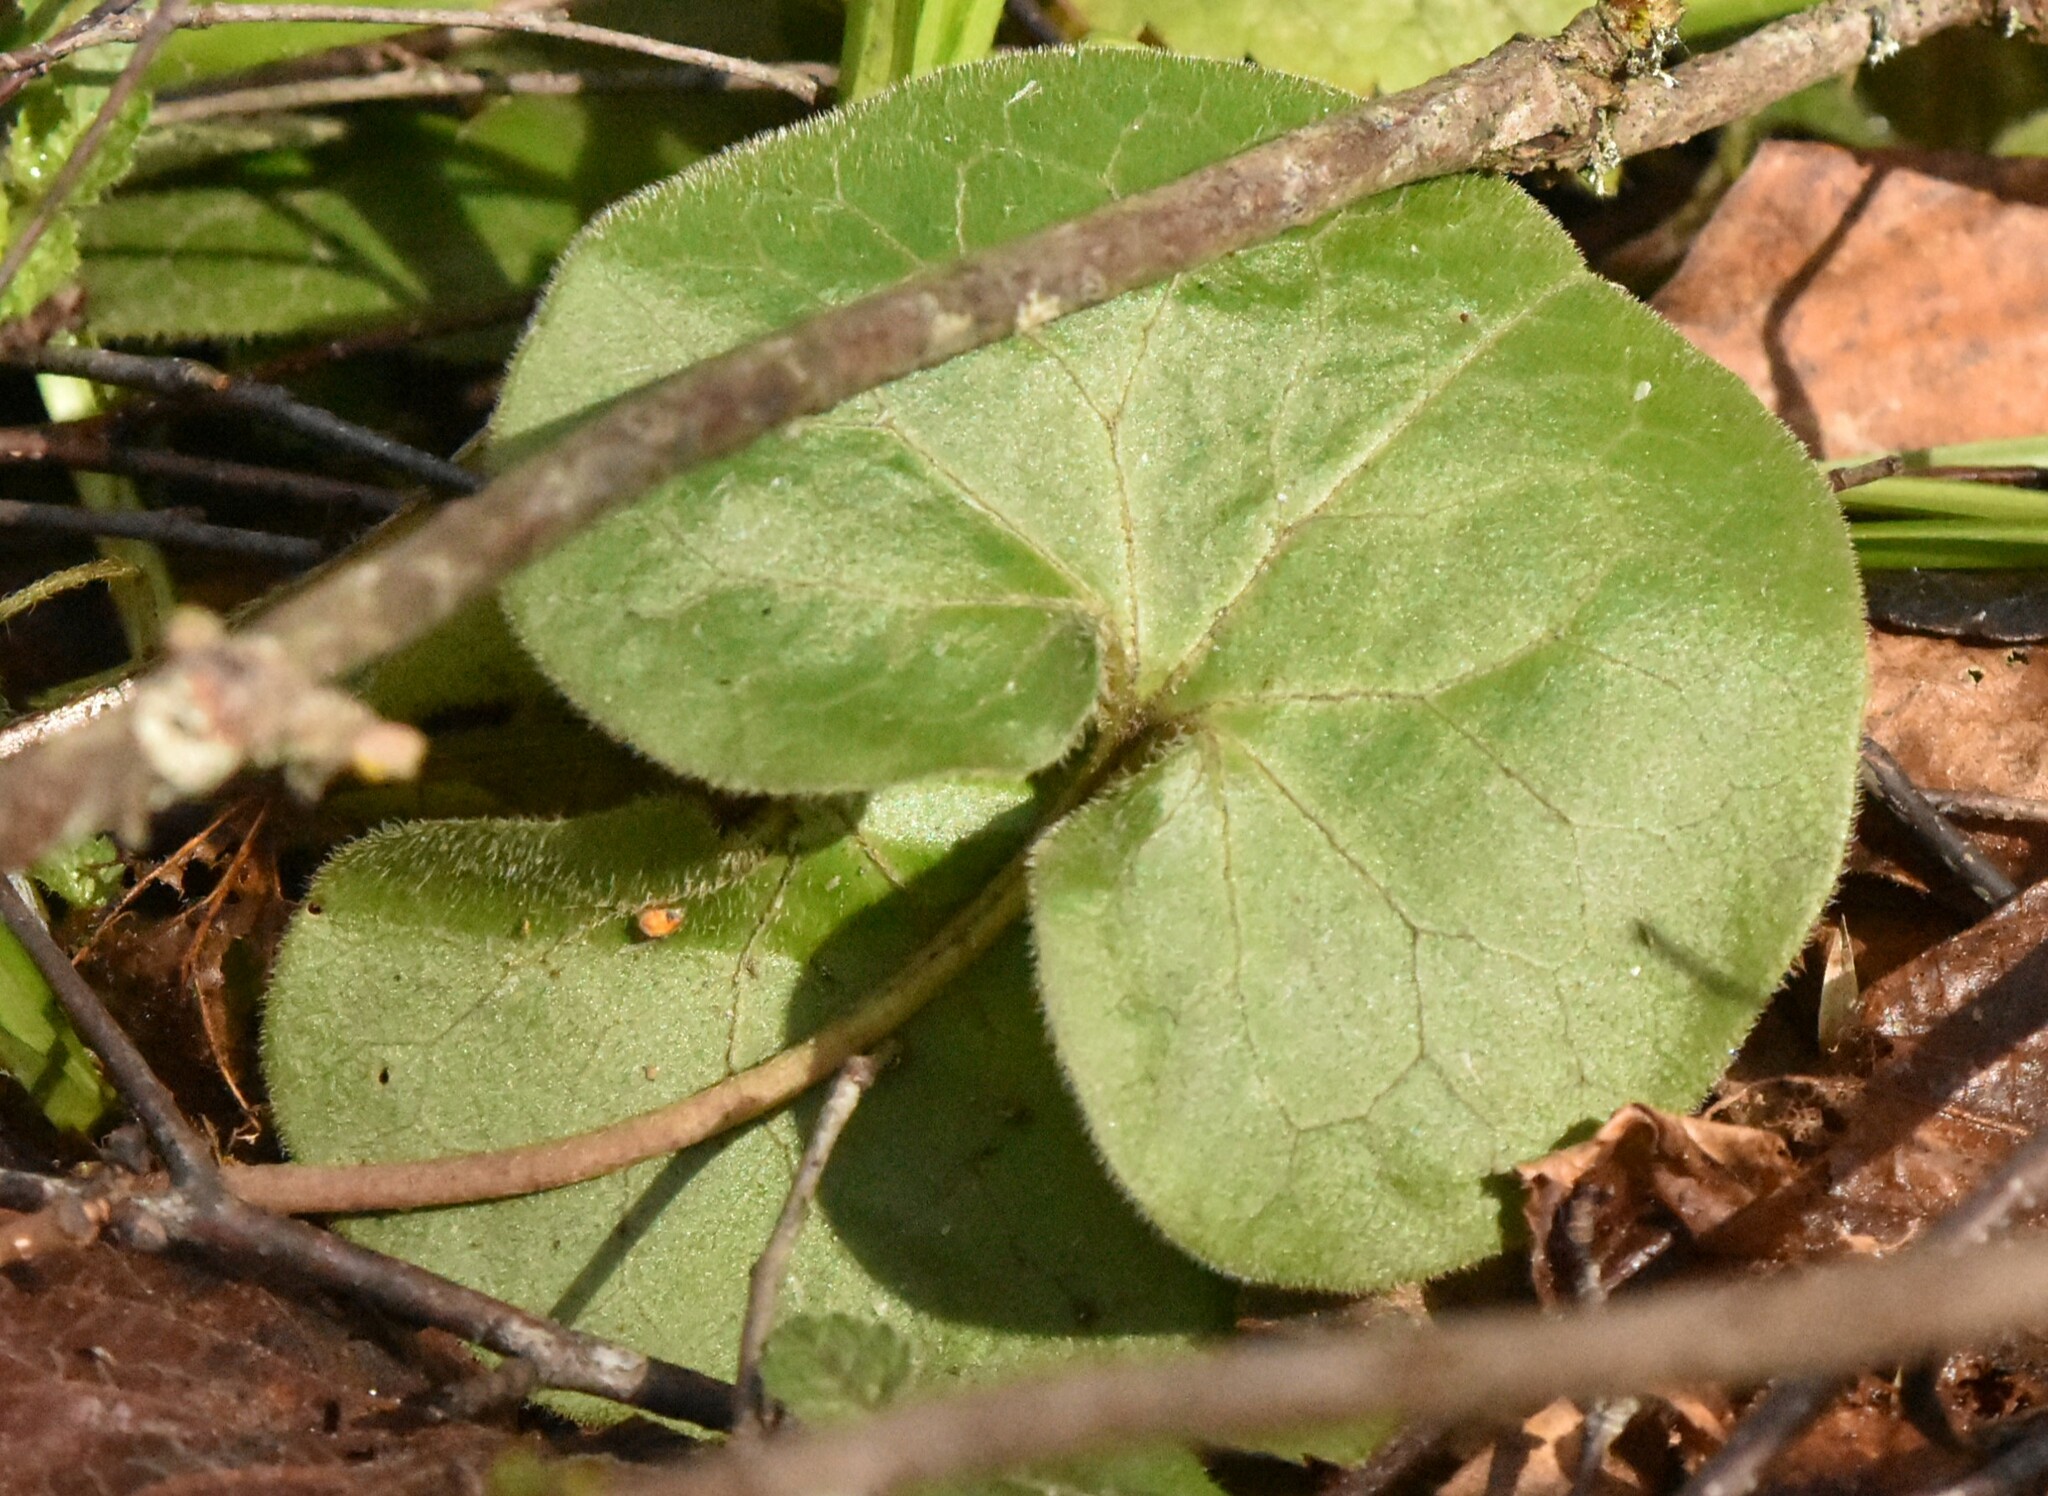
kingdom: Plantae
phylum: Tracheophyta
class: Magnoliopsida
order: Piperales
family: Aristolochiaceae
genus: Asarum
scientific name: Asarum europaeum
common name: Asarabacca
